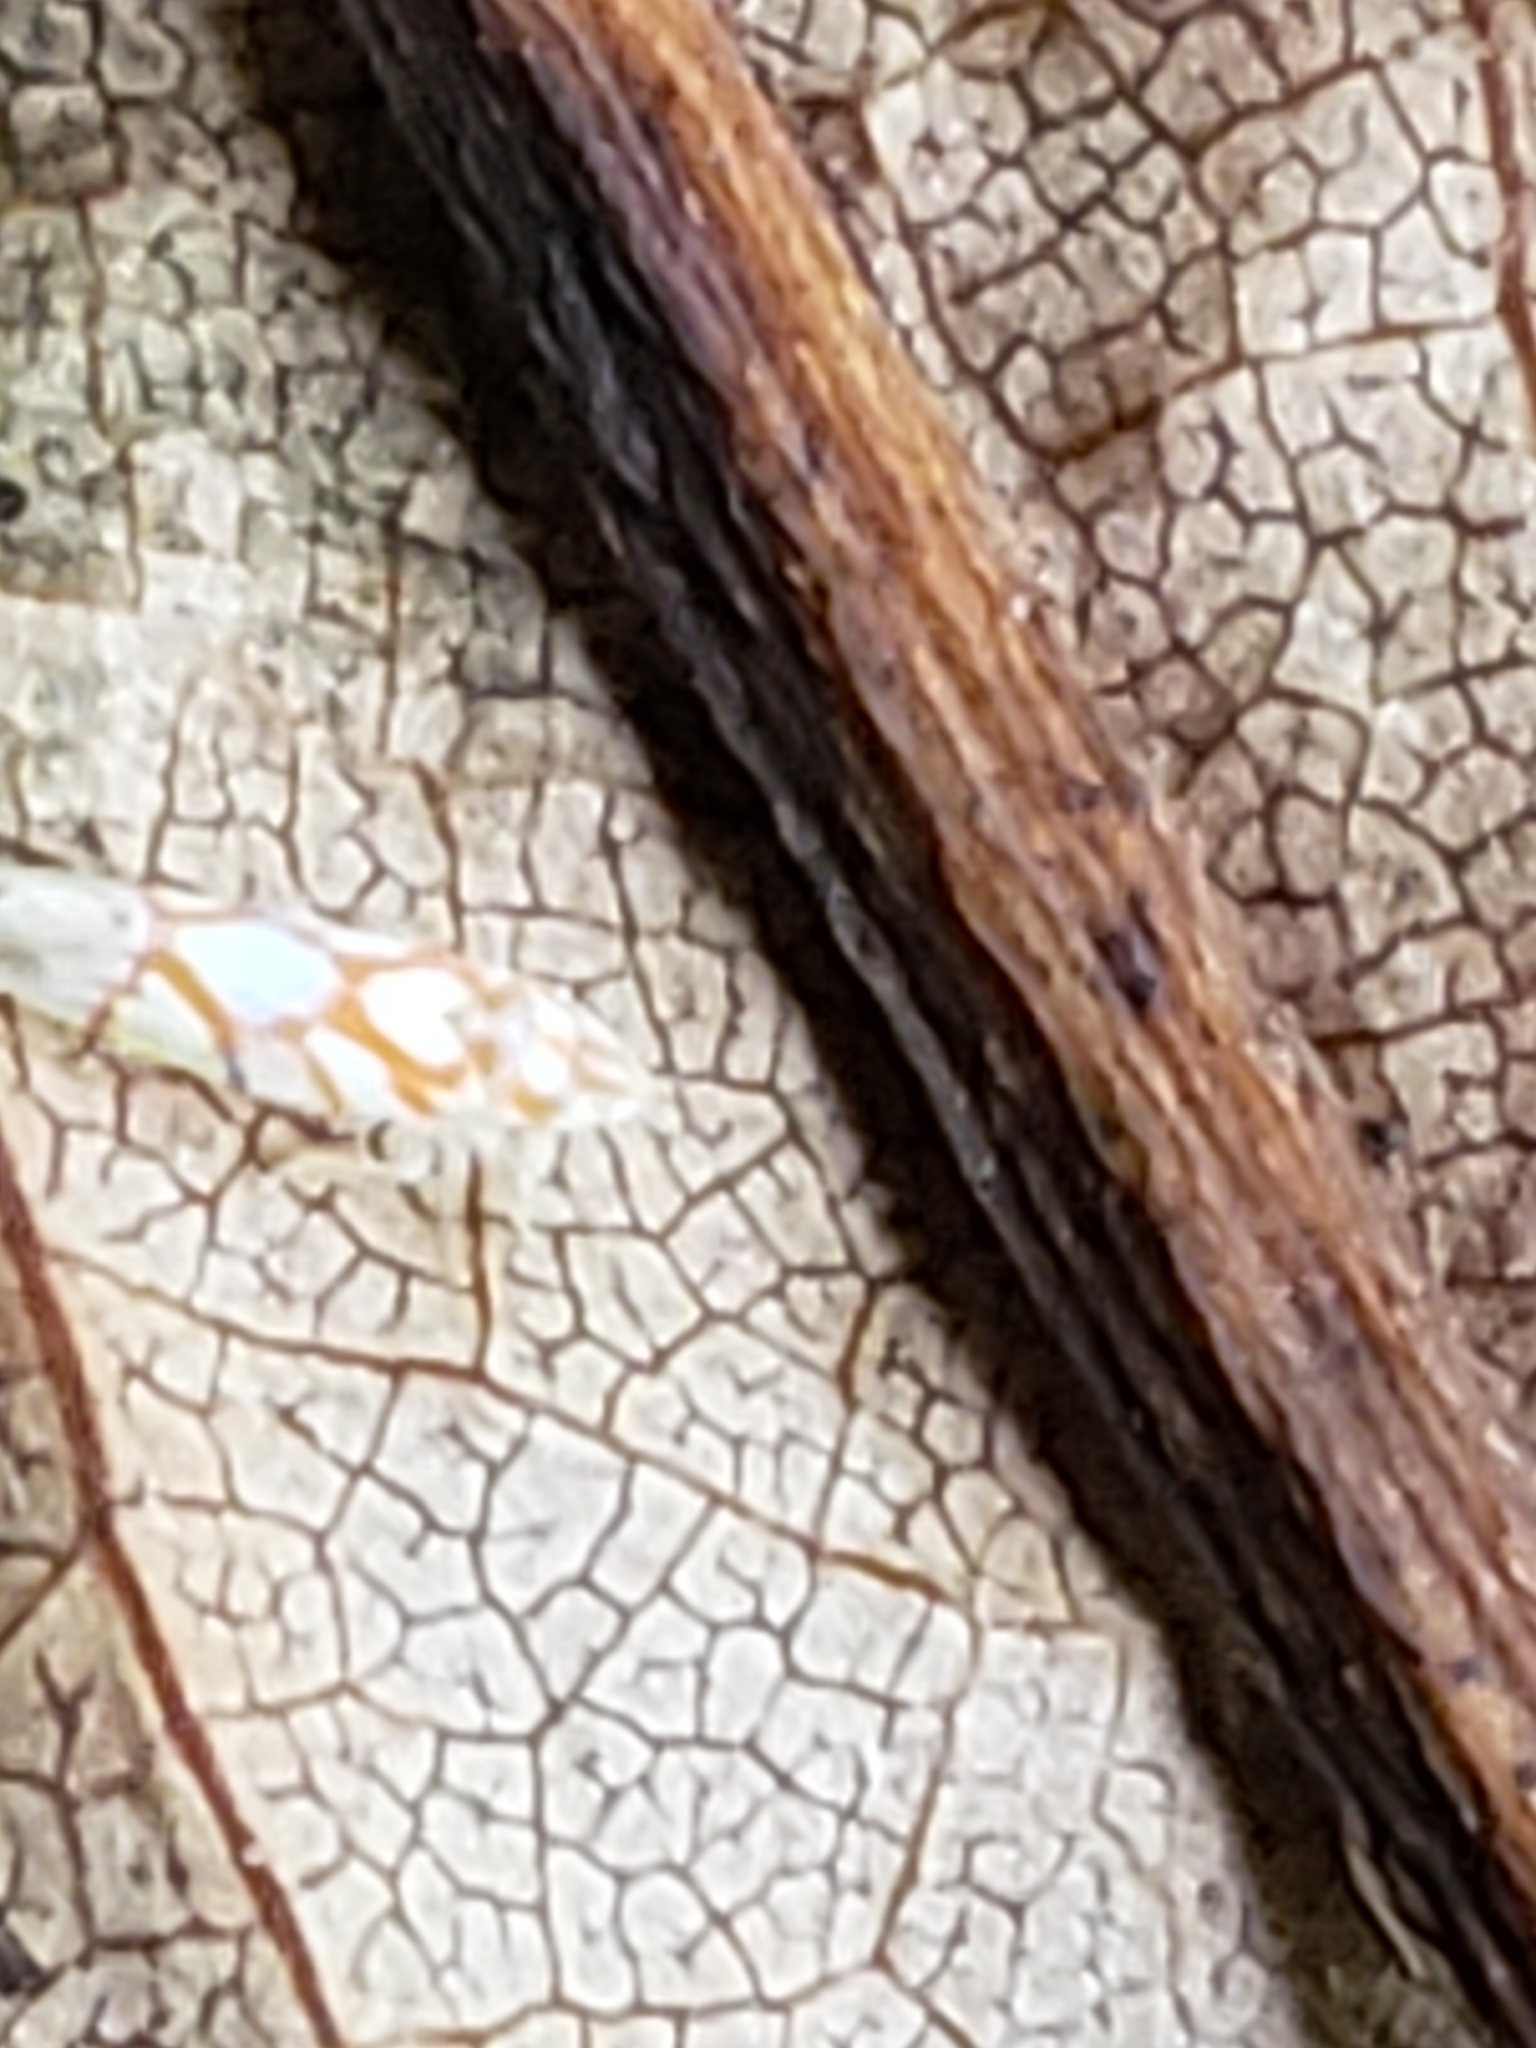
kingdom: Animalia
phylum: Arthropoda
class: Insecta
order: Hemiptera
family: Cicadellidae
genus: Erythroneura
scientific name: Erythroneura acuticephala
